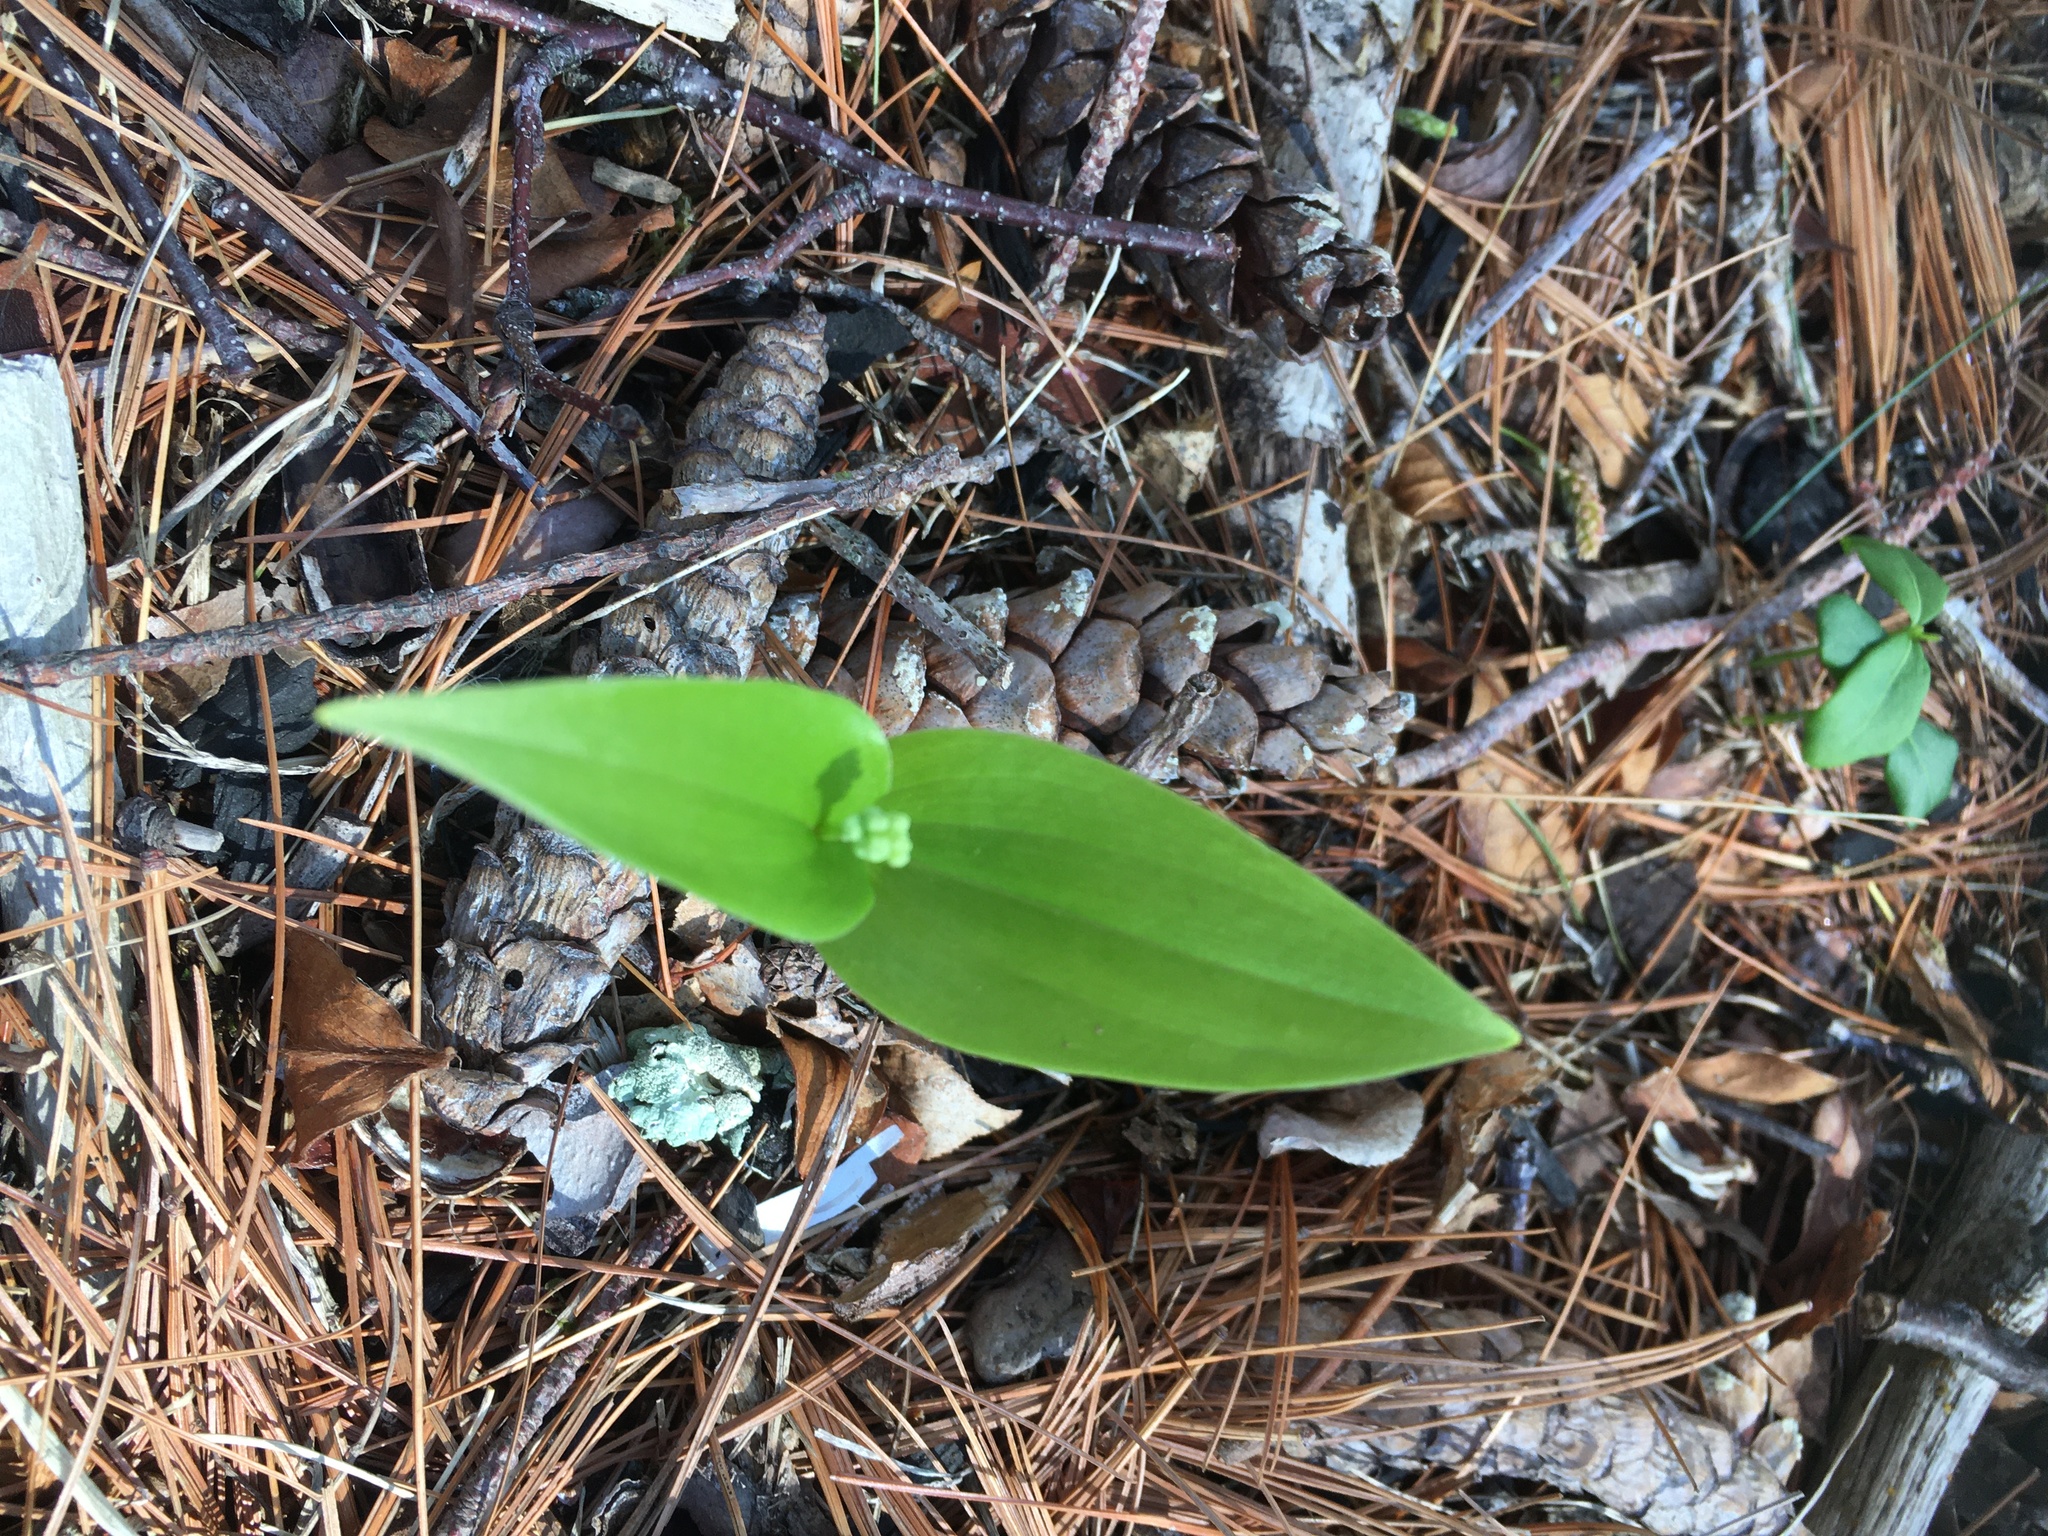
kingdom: Plantae
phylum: Tracheophyta
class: Liliopsida
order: Asparagales
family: Asparagaceae
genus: Maianthemum
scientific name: Maianthemum canadense
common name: False lily-of-the-valley
